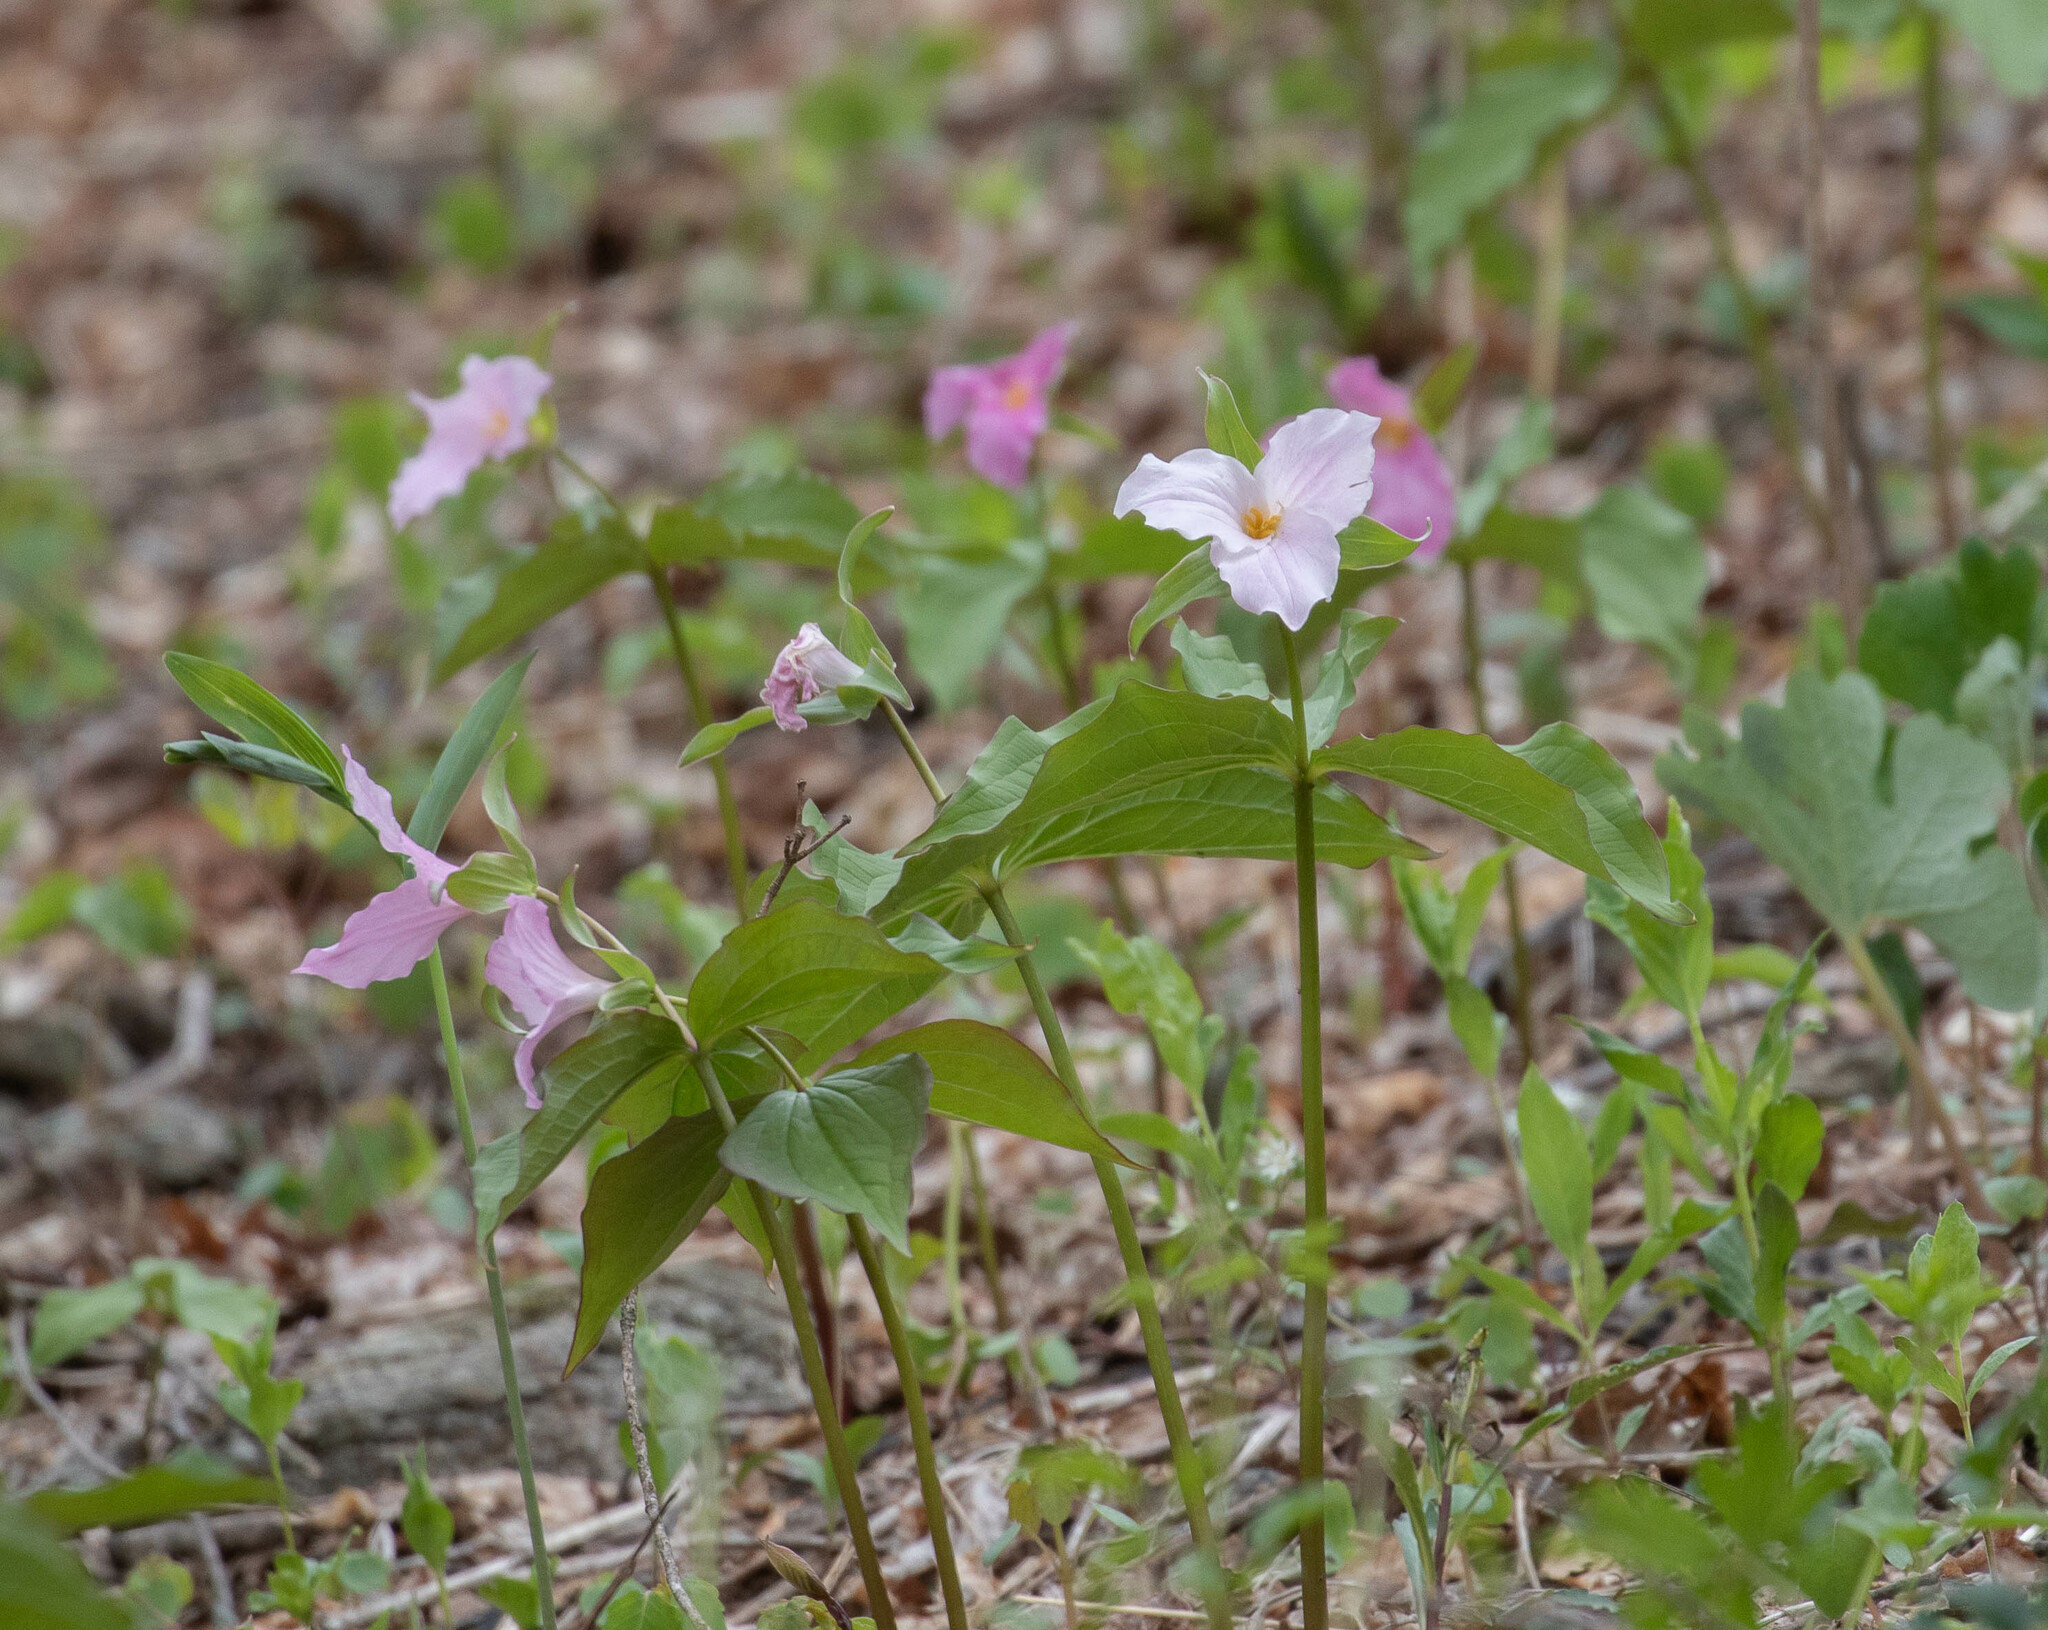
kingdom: Plantae
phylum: Tracheophyta
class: Liliopsida
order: Liliales
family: Melanthiaceae
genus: Trillium
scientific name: Trillium grandiflorum
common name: Great white trillium
